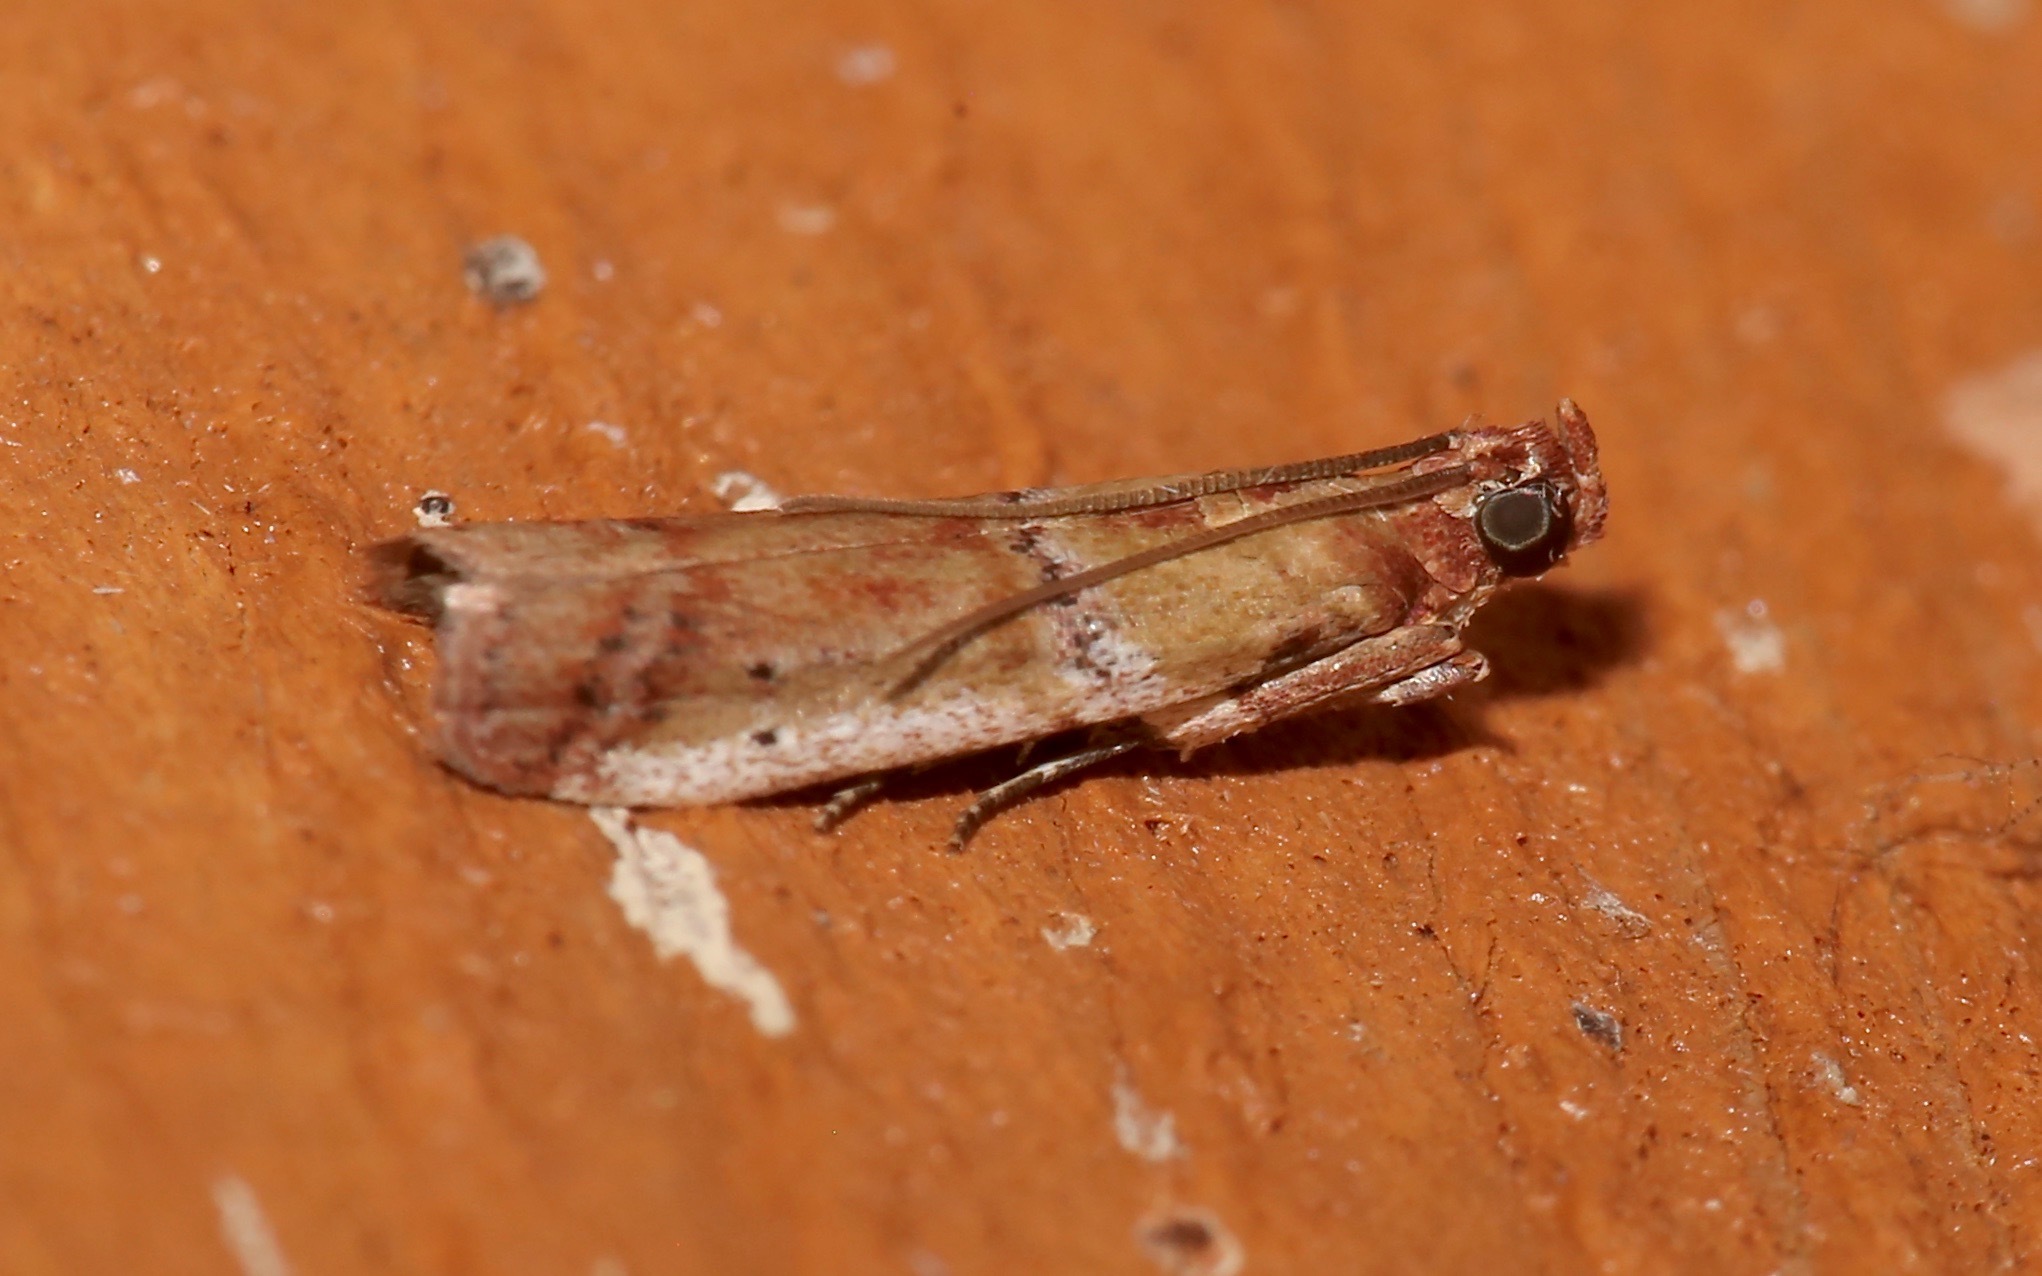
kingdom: Animalia
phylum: Arthropoda
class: Insecta
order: Lepidoptera
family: Pyralidae
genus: Atheloca
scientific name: Atheloca subrufella
